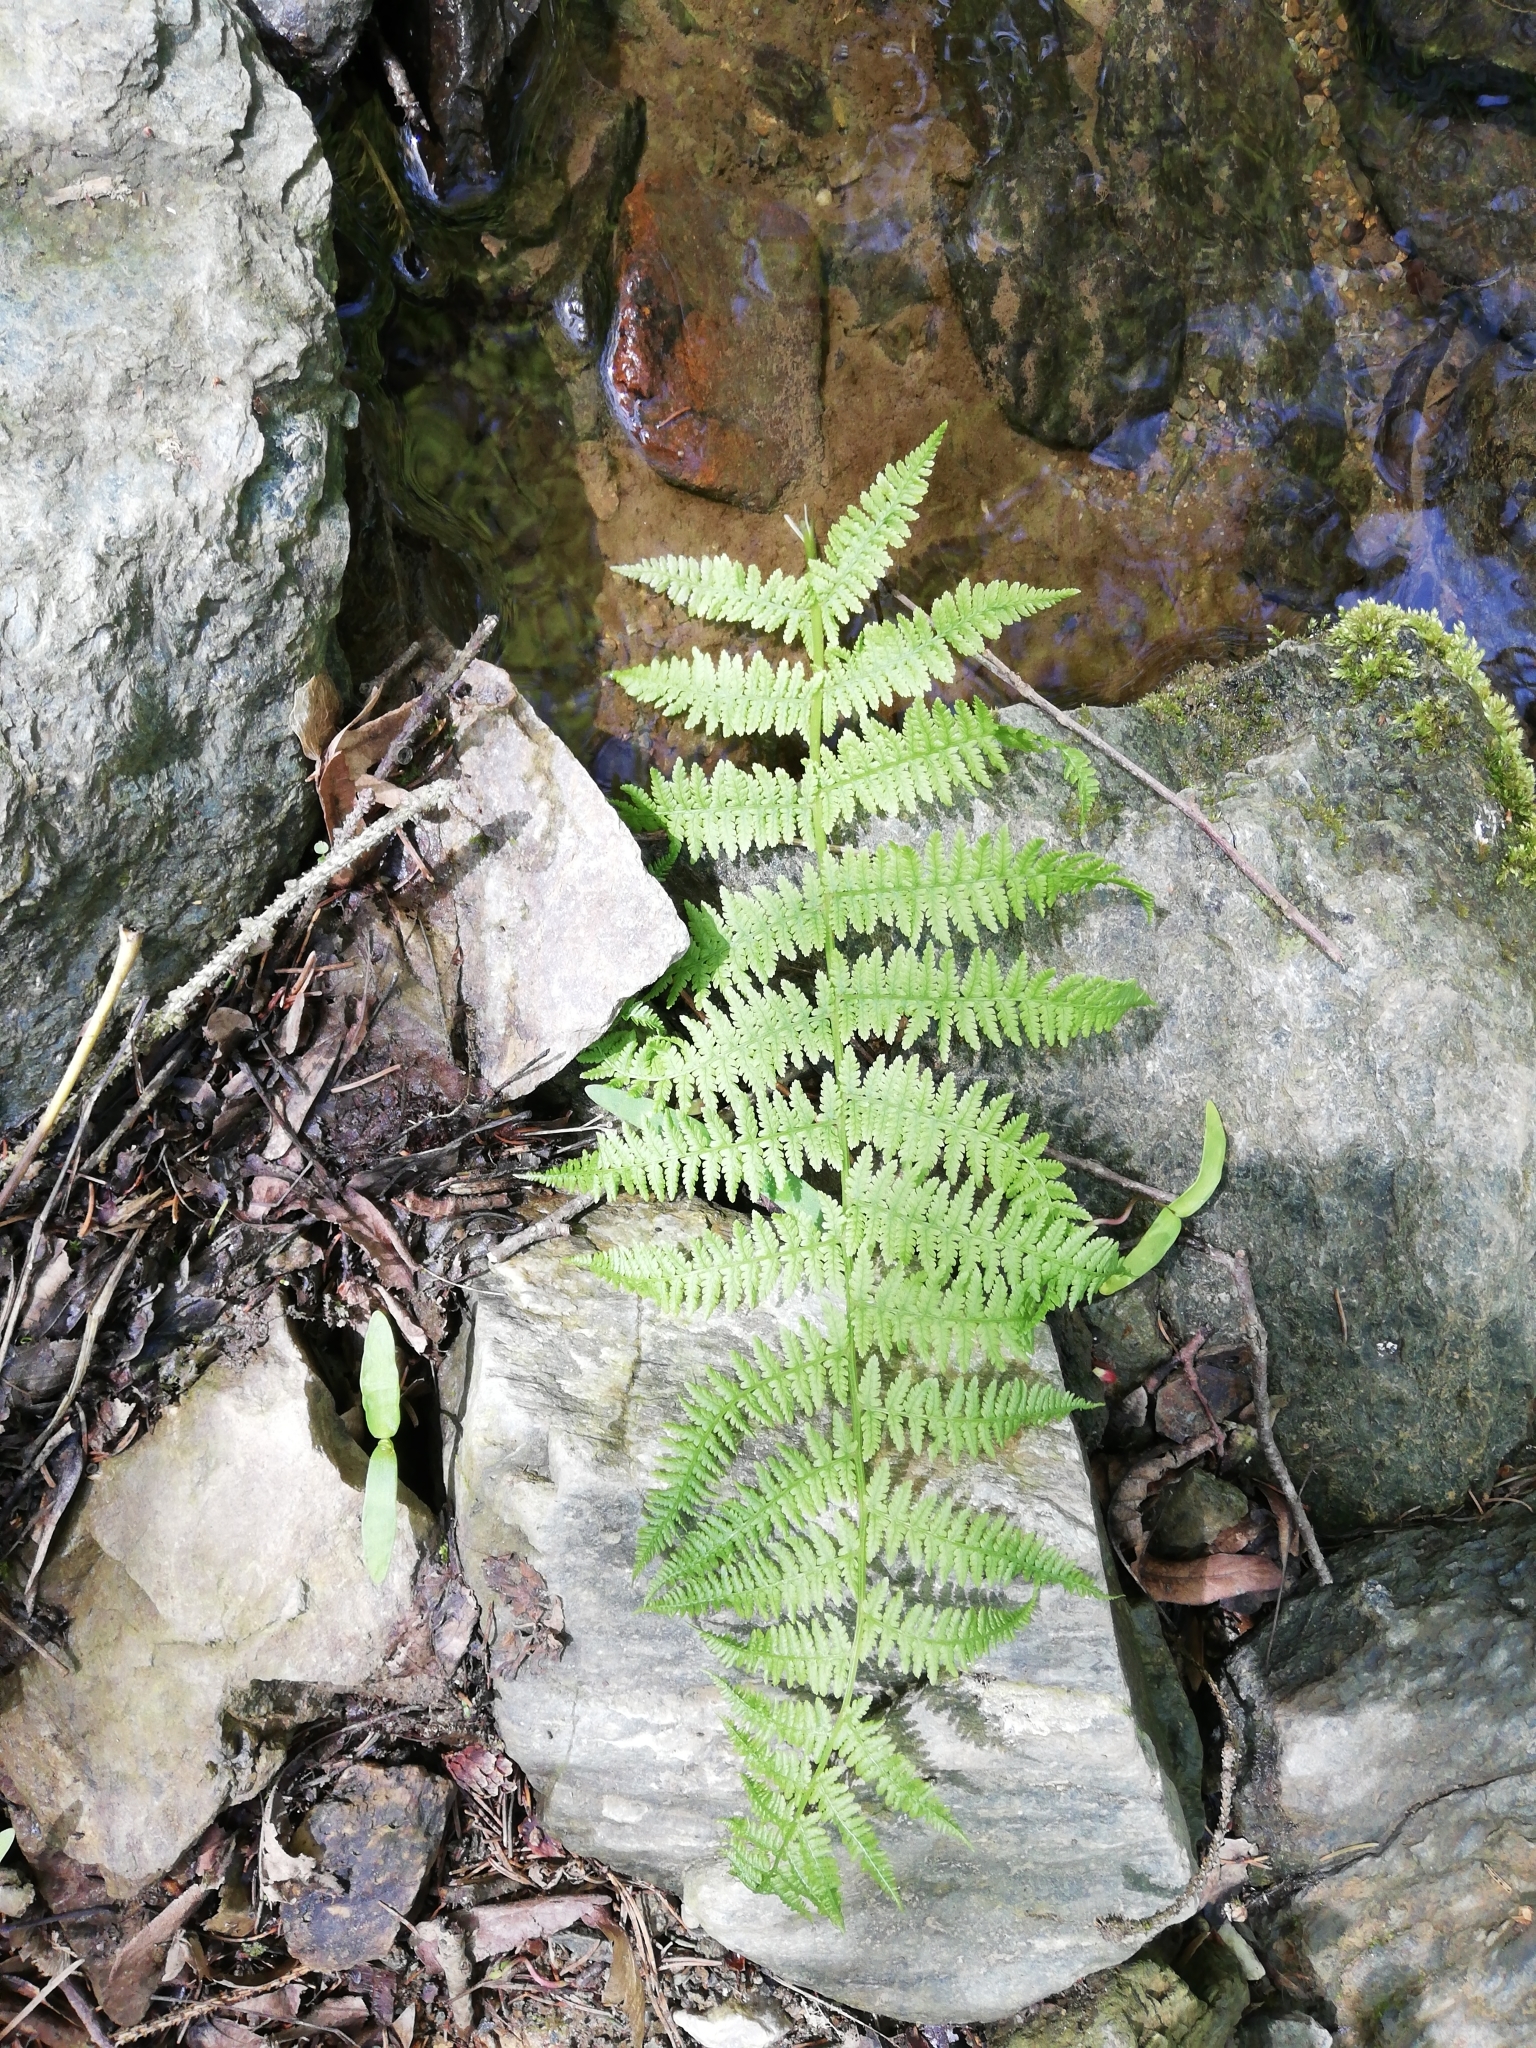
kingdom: Plantae
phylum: Tracheophyta
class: Polypodiopsida
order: Polypodiales
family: Athyriaceae
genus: Athyrium
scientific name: Athyrium filix-femina
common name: Lady fern
